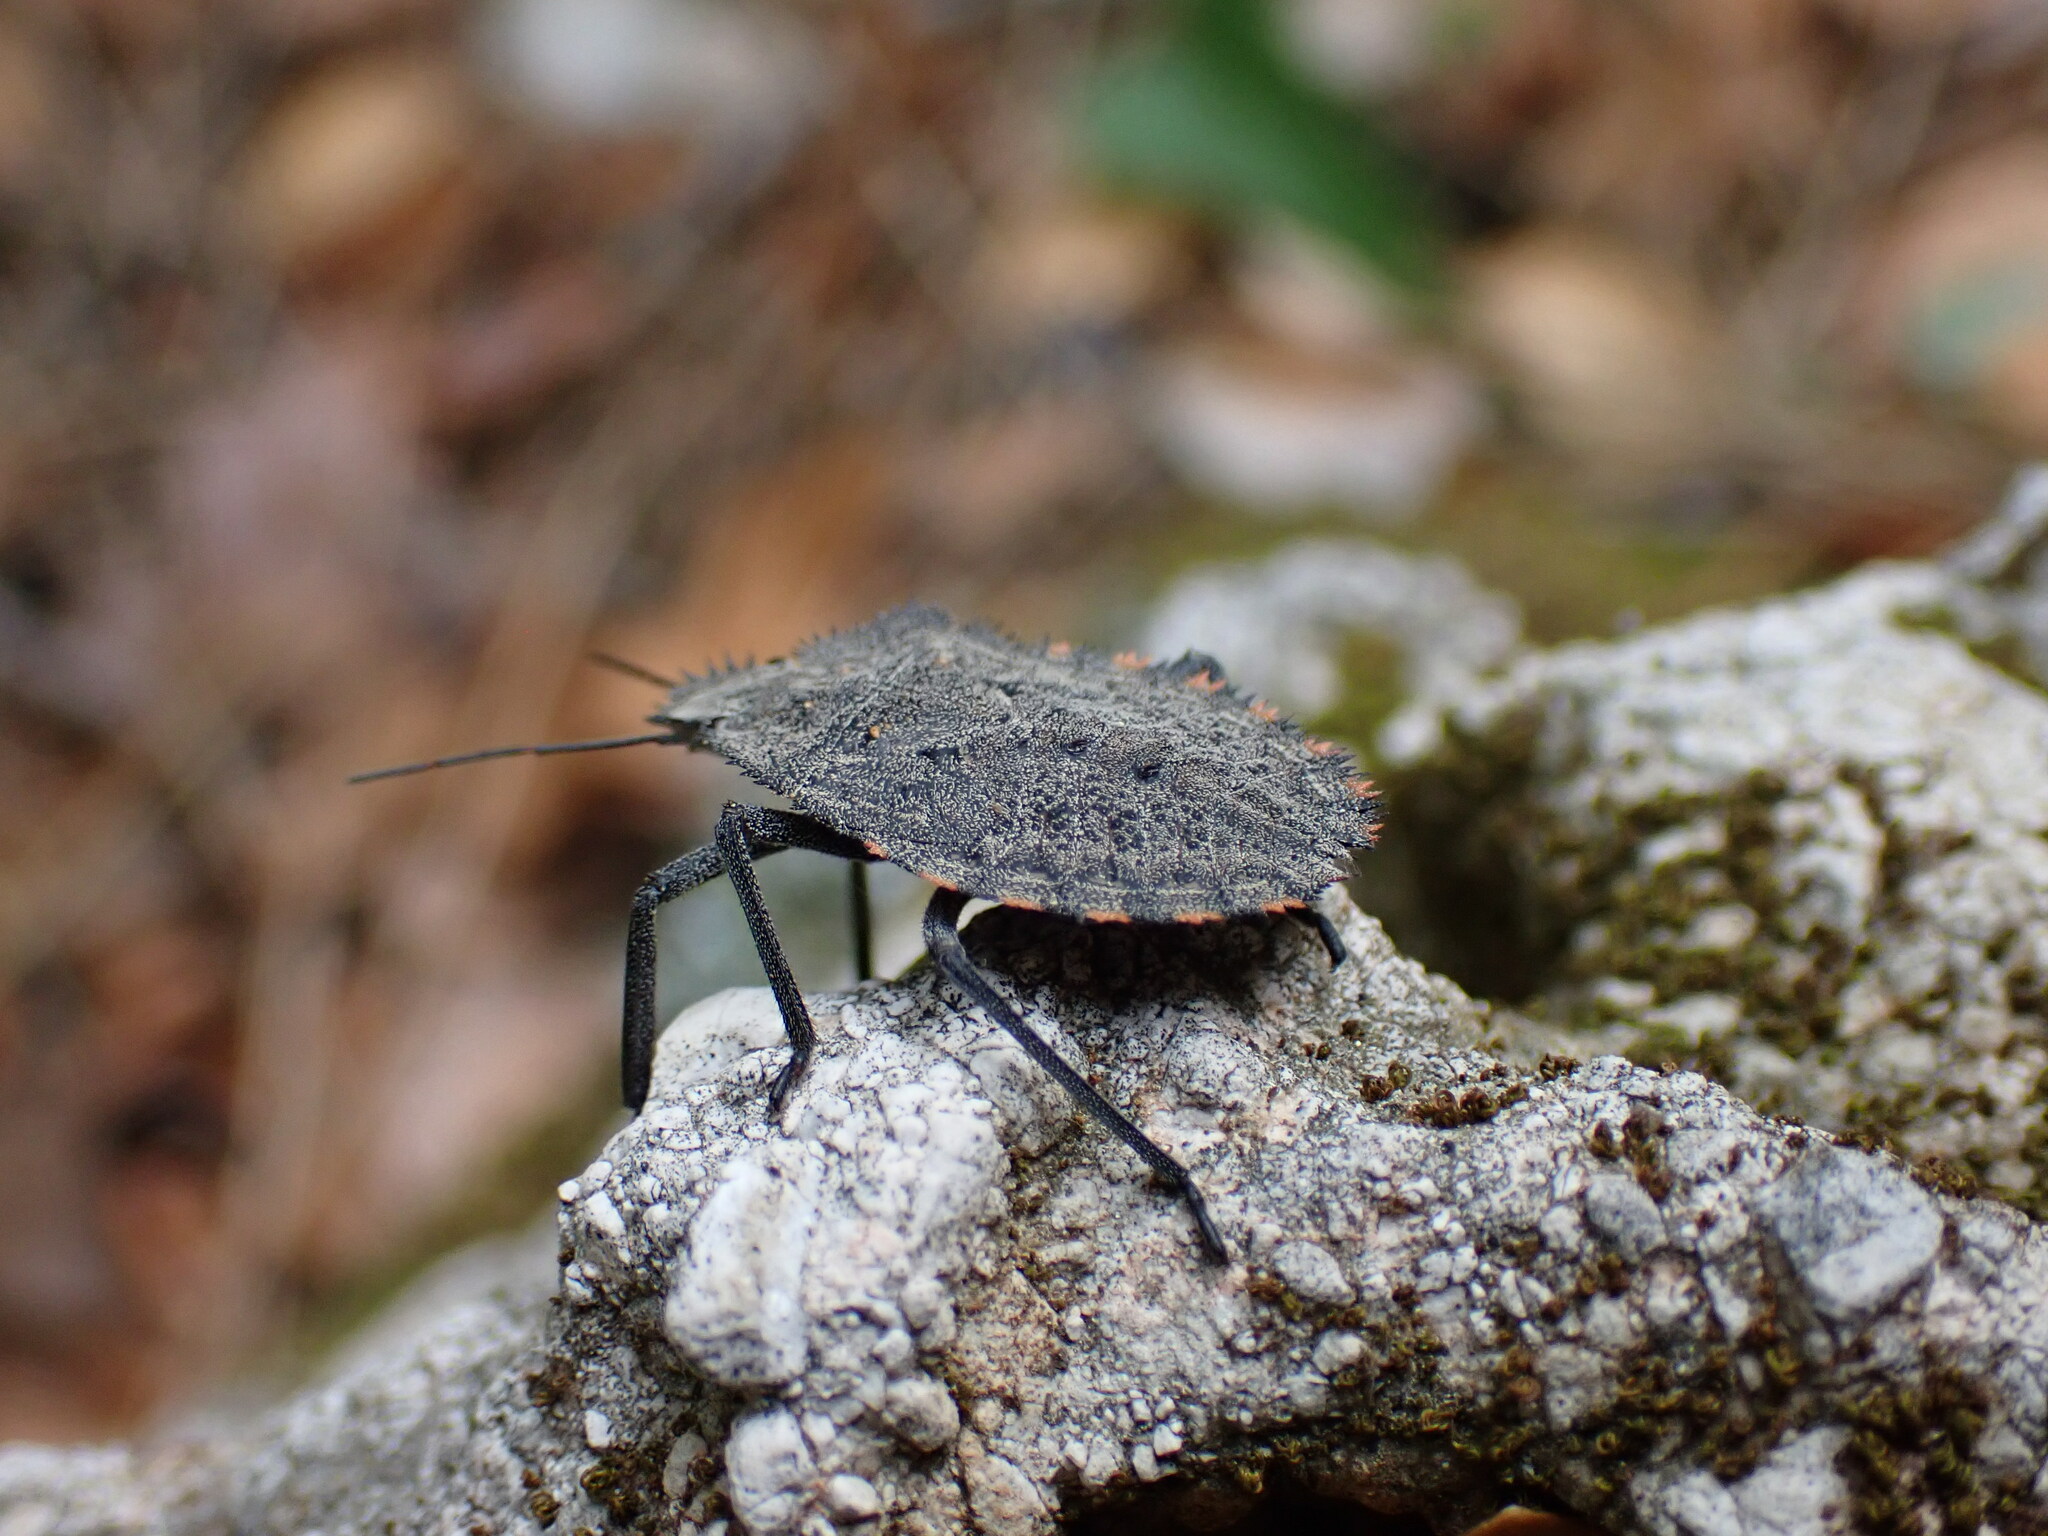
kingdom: Animalia
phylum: Arthropoda
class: Insecta
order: Hemiptera
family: Pentatomidae
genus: Mustha
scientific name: Mustha spinosula
